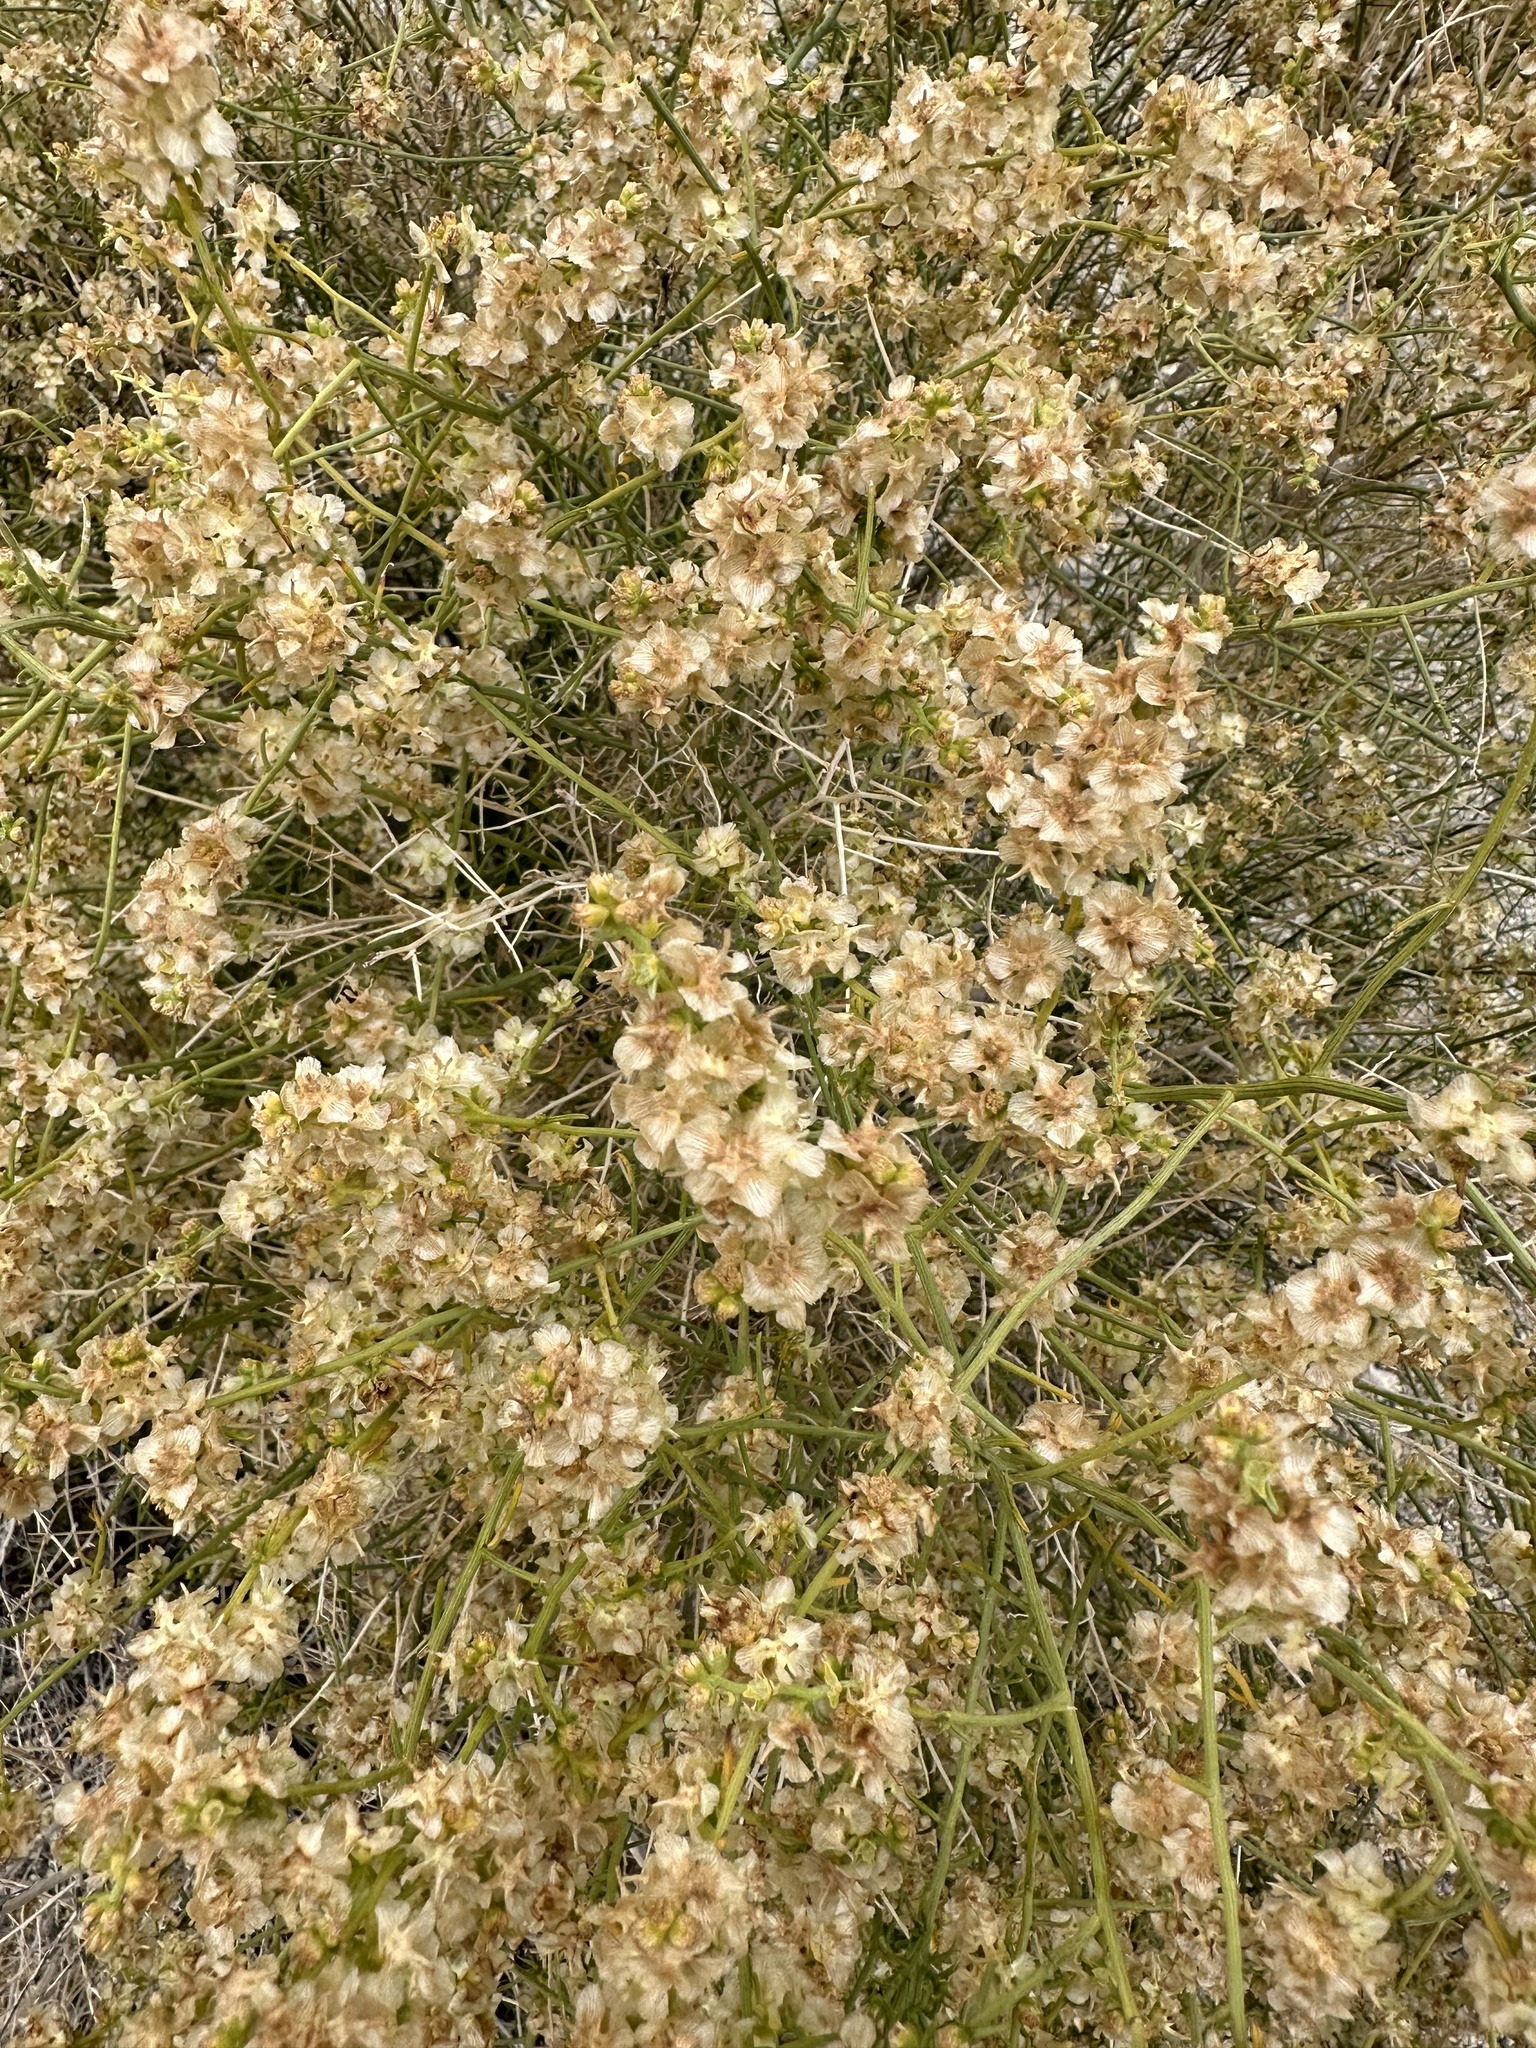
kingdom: Plantae
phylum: Tracheophyta
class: Magnoliopsida
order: Asterales
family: Asteraceae
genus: Ambrosia
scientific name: Ambrosia salsola
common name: Burrobrush
